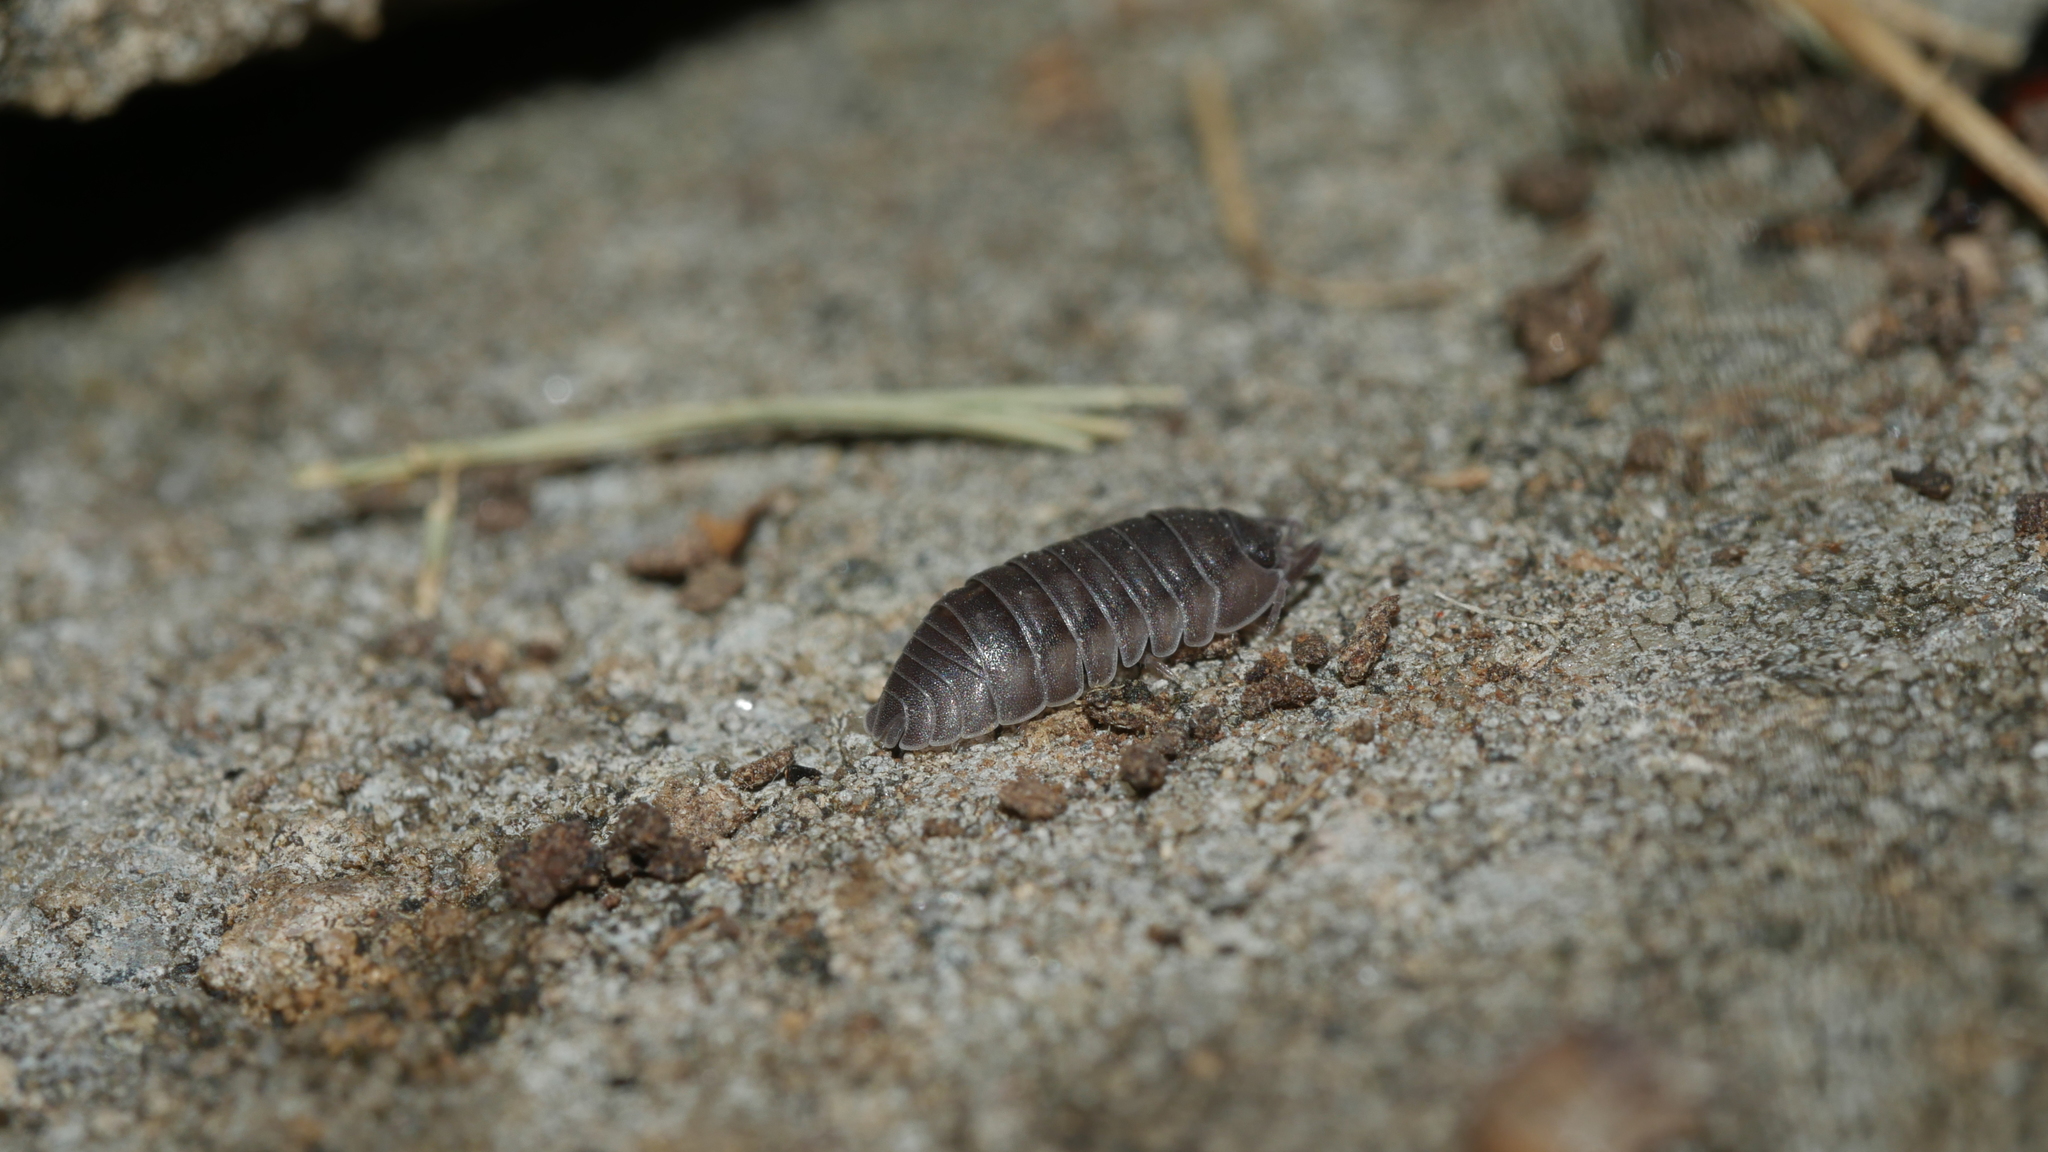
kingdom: Animalia
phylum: Arthropoda
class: Malacostraca
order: Isopoda
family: Armadillidiidae
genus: Armadillidium
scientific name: Armadillidium nasatum
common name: Isopod
